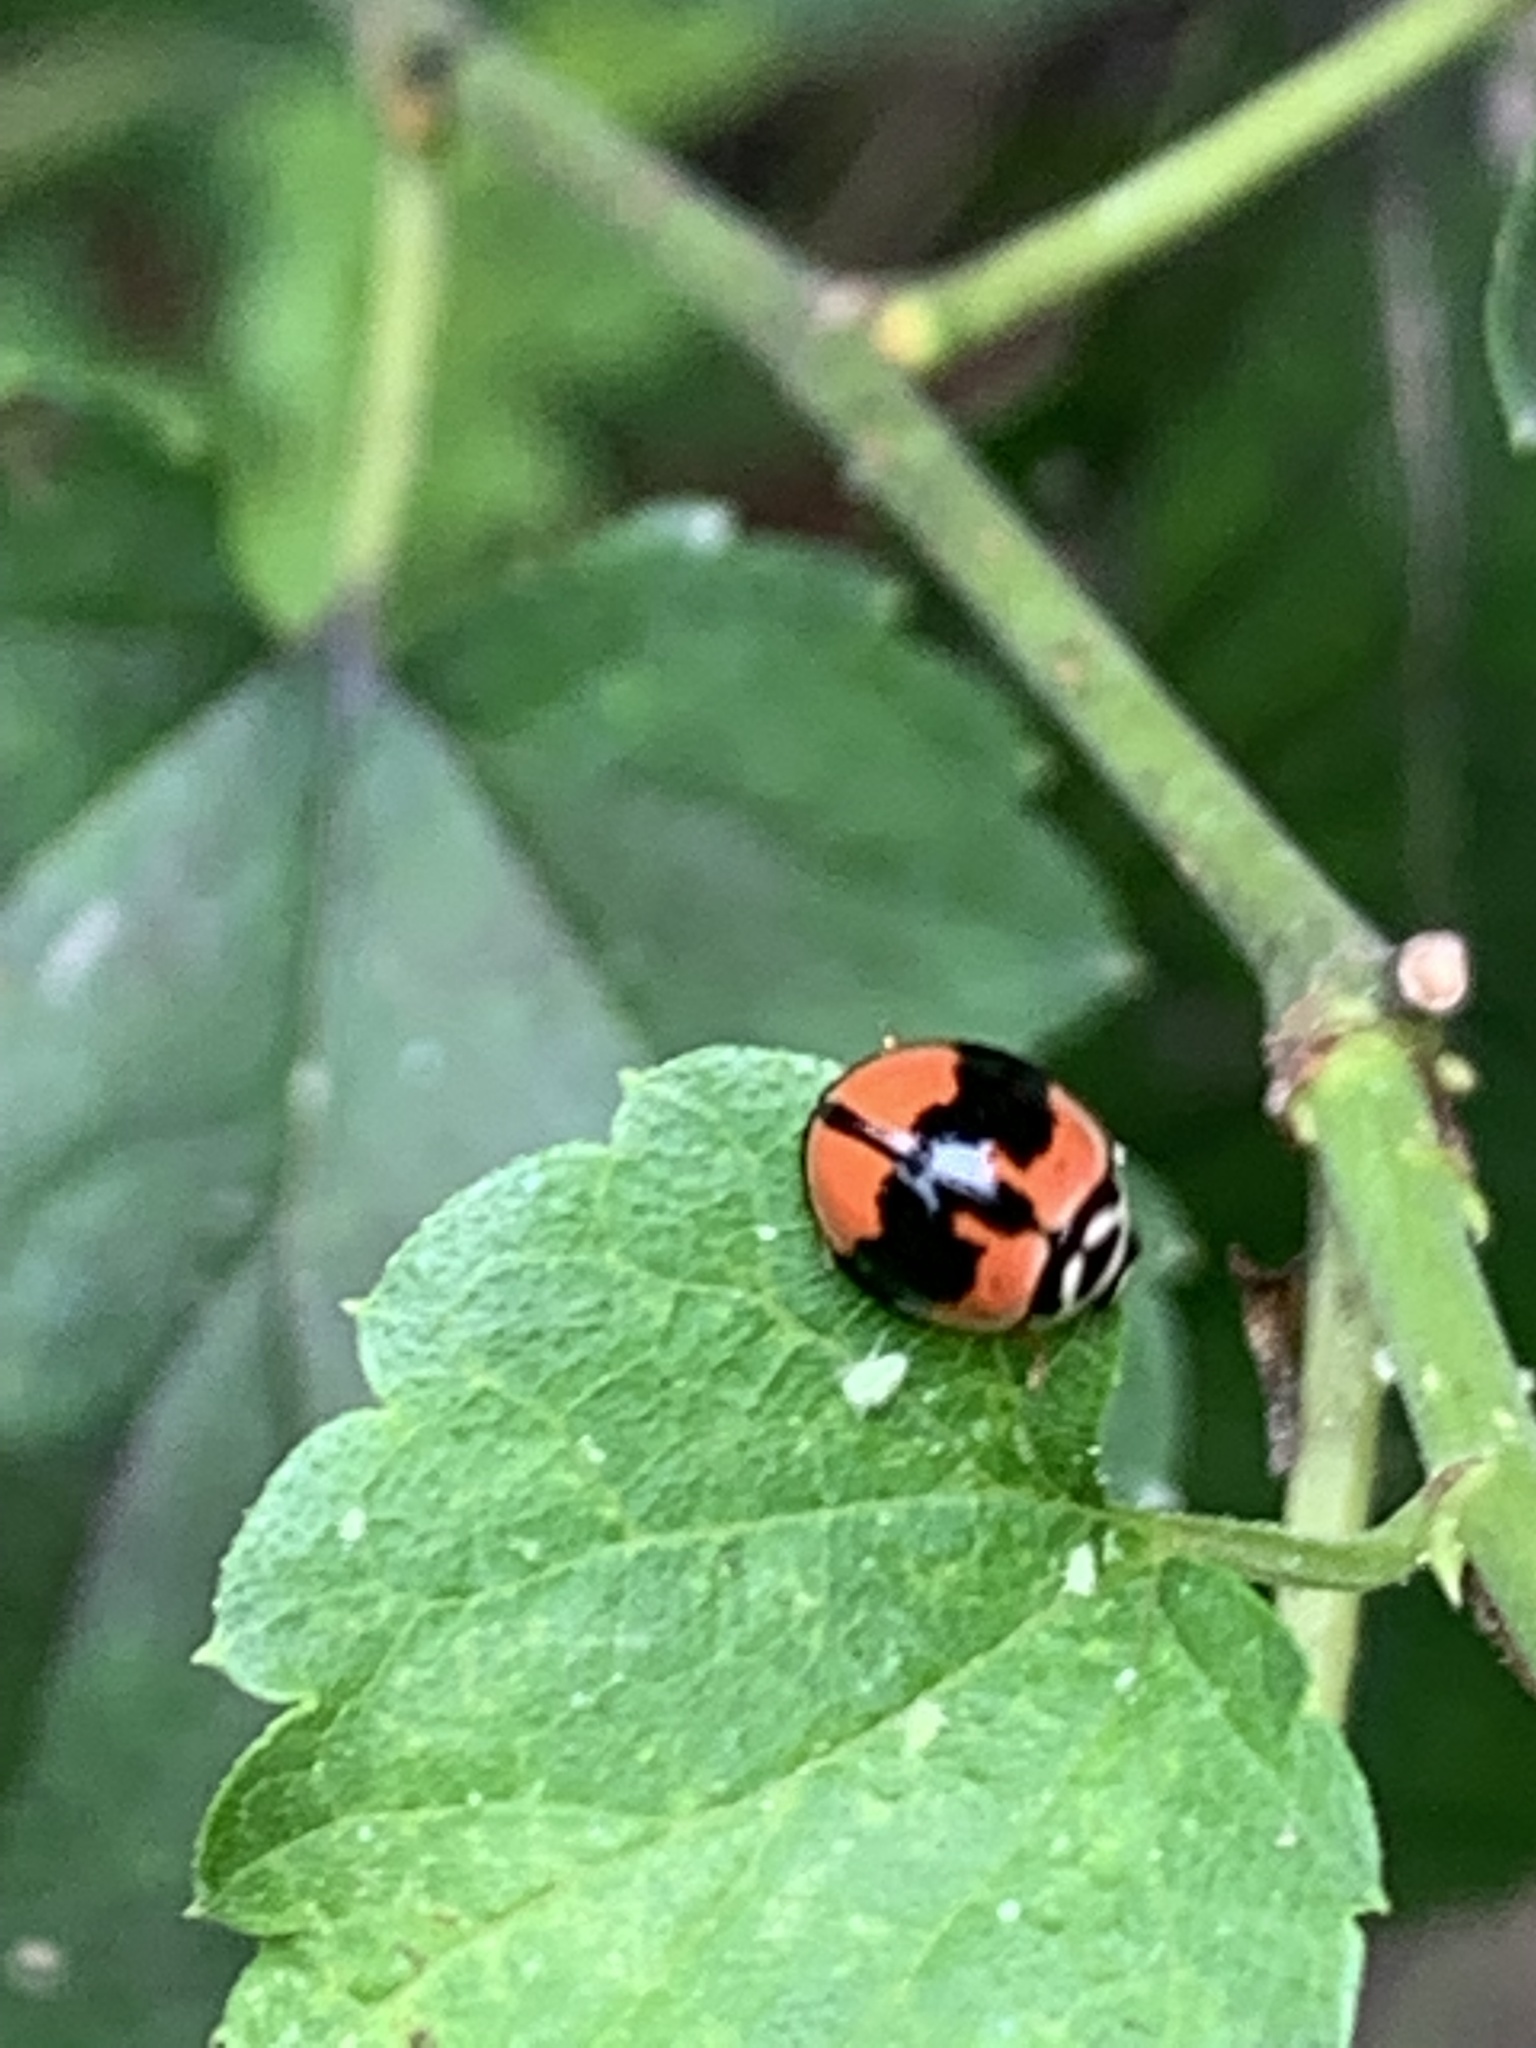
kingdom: Animalia
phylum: Arthropoda
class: Insecta
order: Coleoptera
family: Coccinellidae
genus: Cheilomenes
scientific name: Cheilomenes sexmaculata
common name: Ladybird beetle
